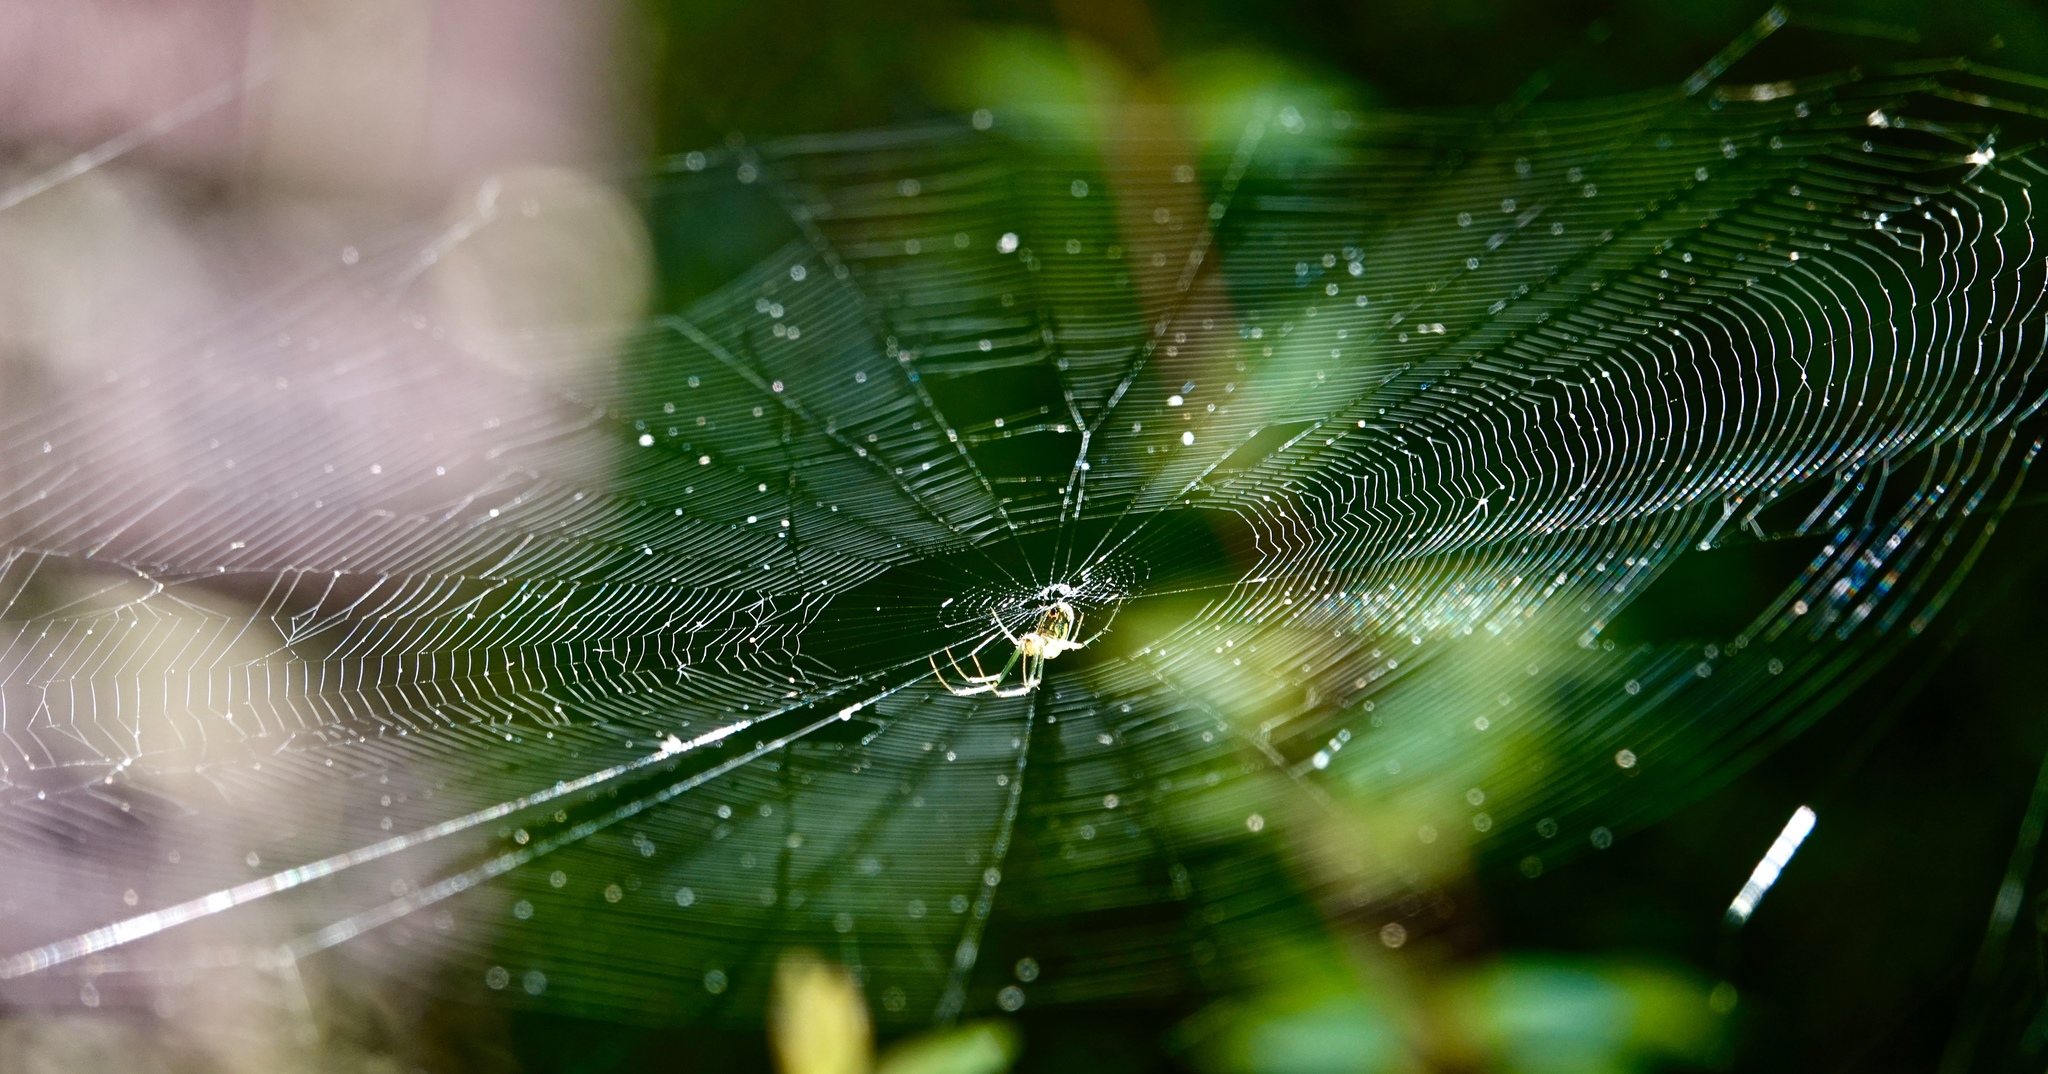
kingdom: Animalia
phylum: Arthropoda
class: Arachnida
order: Araneae
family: Tetragnathidae
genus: Leucauge
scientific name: Leucauge venusta
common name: Longjawed orb weavers
